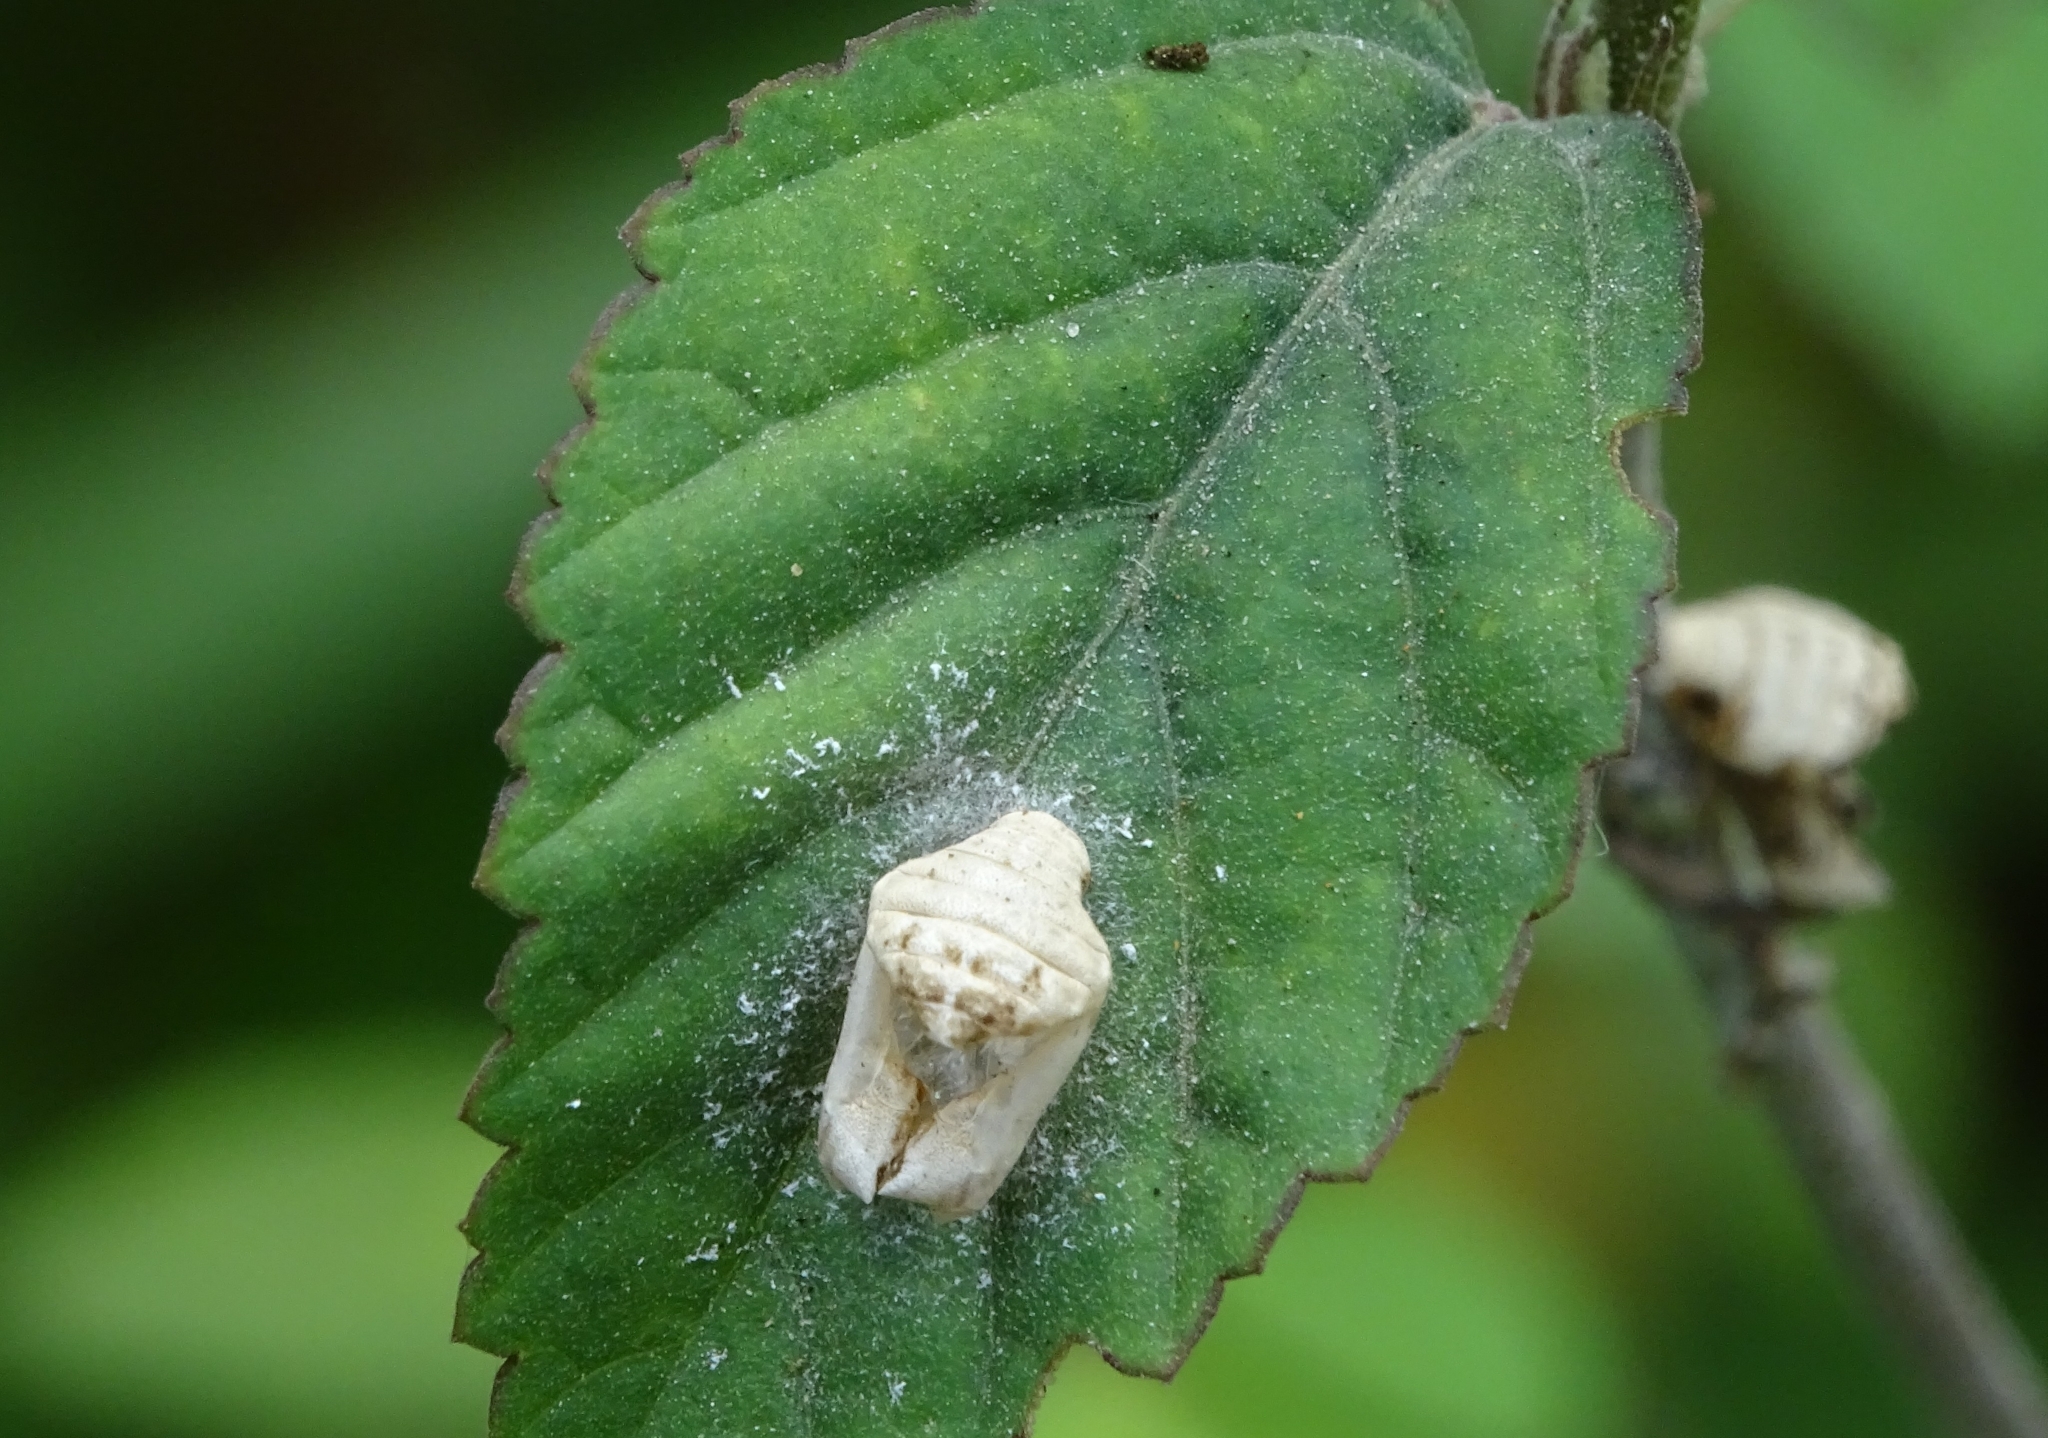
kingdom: Animalia
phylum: Arthropoda
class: Insecta
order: Lepidoptera
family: Lycaenidae
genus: Spalgis
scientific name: Spalgis epius
